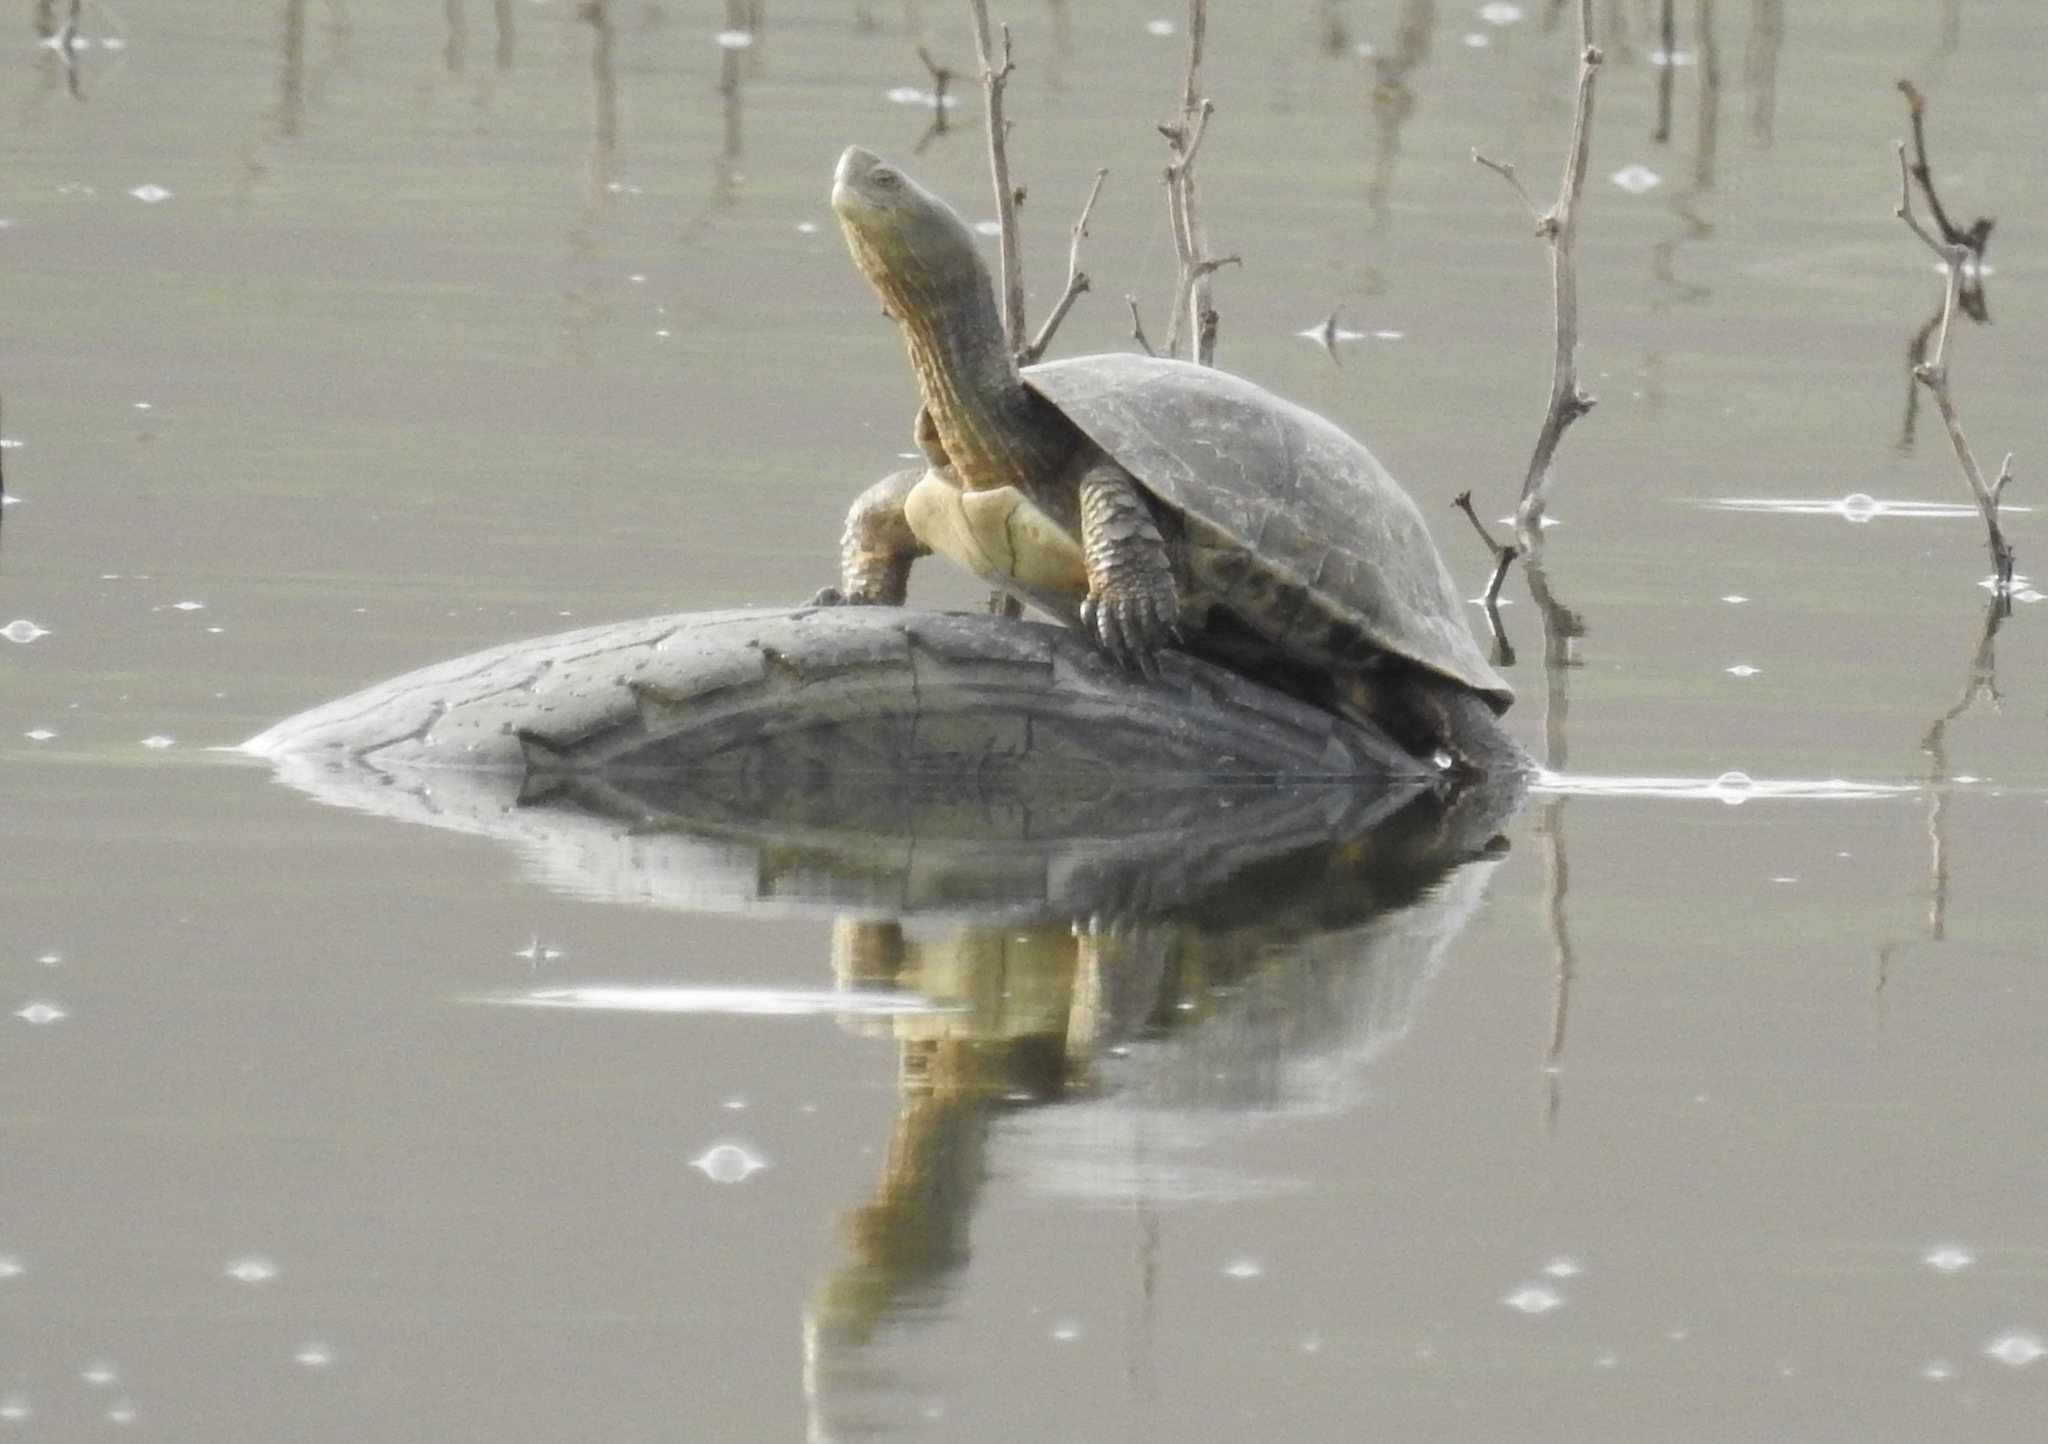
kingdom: Animalia
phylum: Chordata
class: Testudines
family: Geoemydidae
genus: Mauremys
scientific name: Mauremys leprosa
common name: Mediterranean pond turtle
